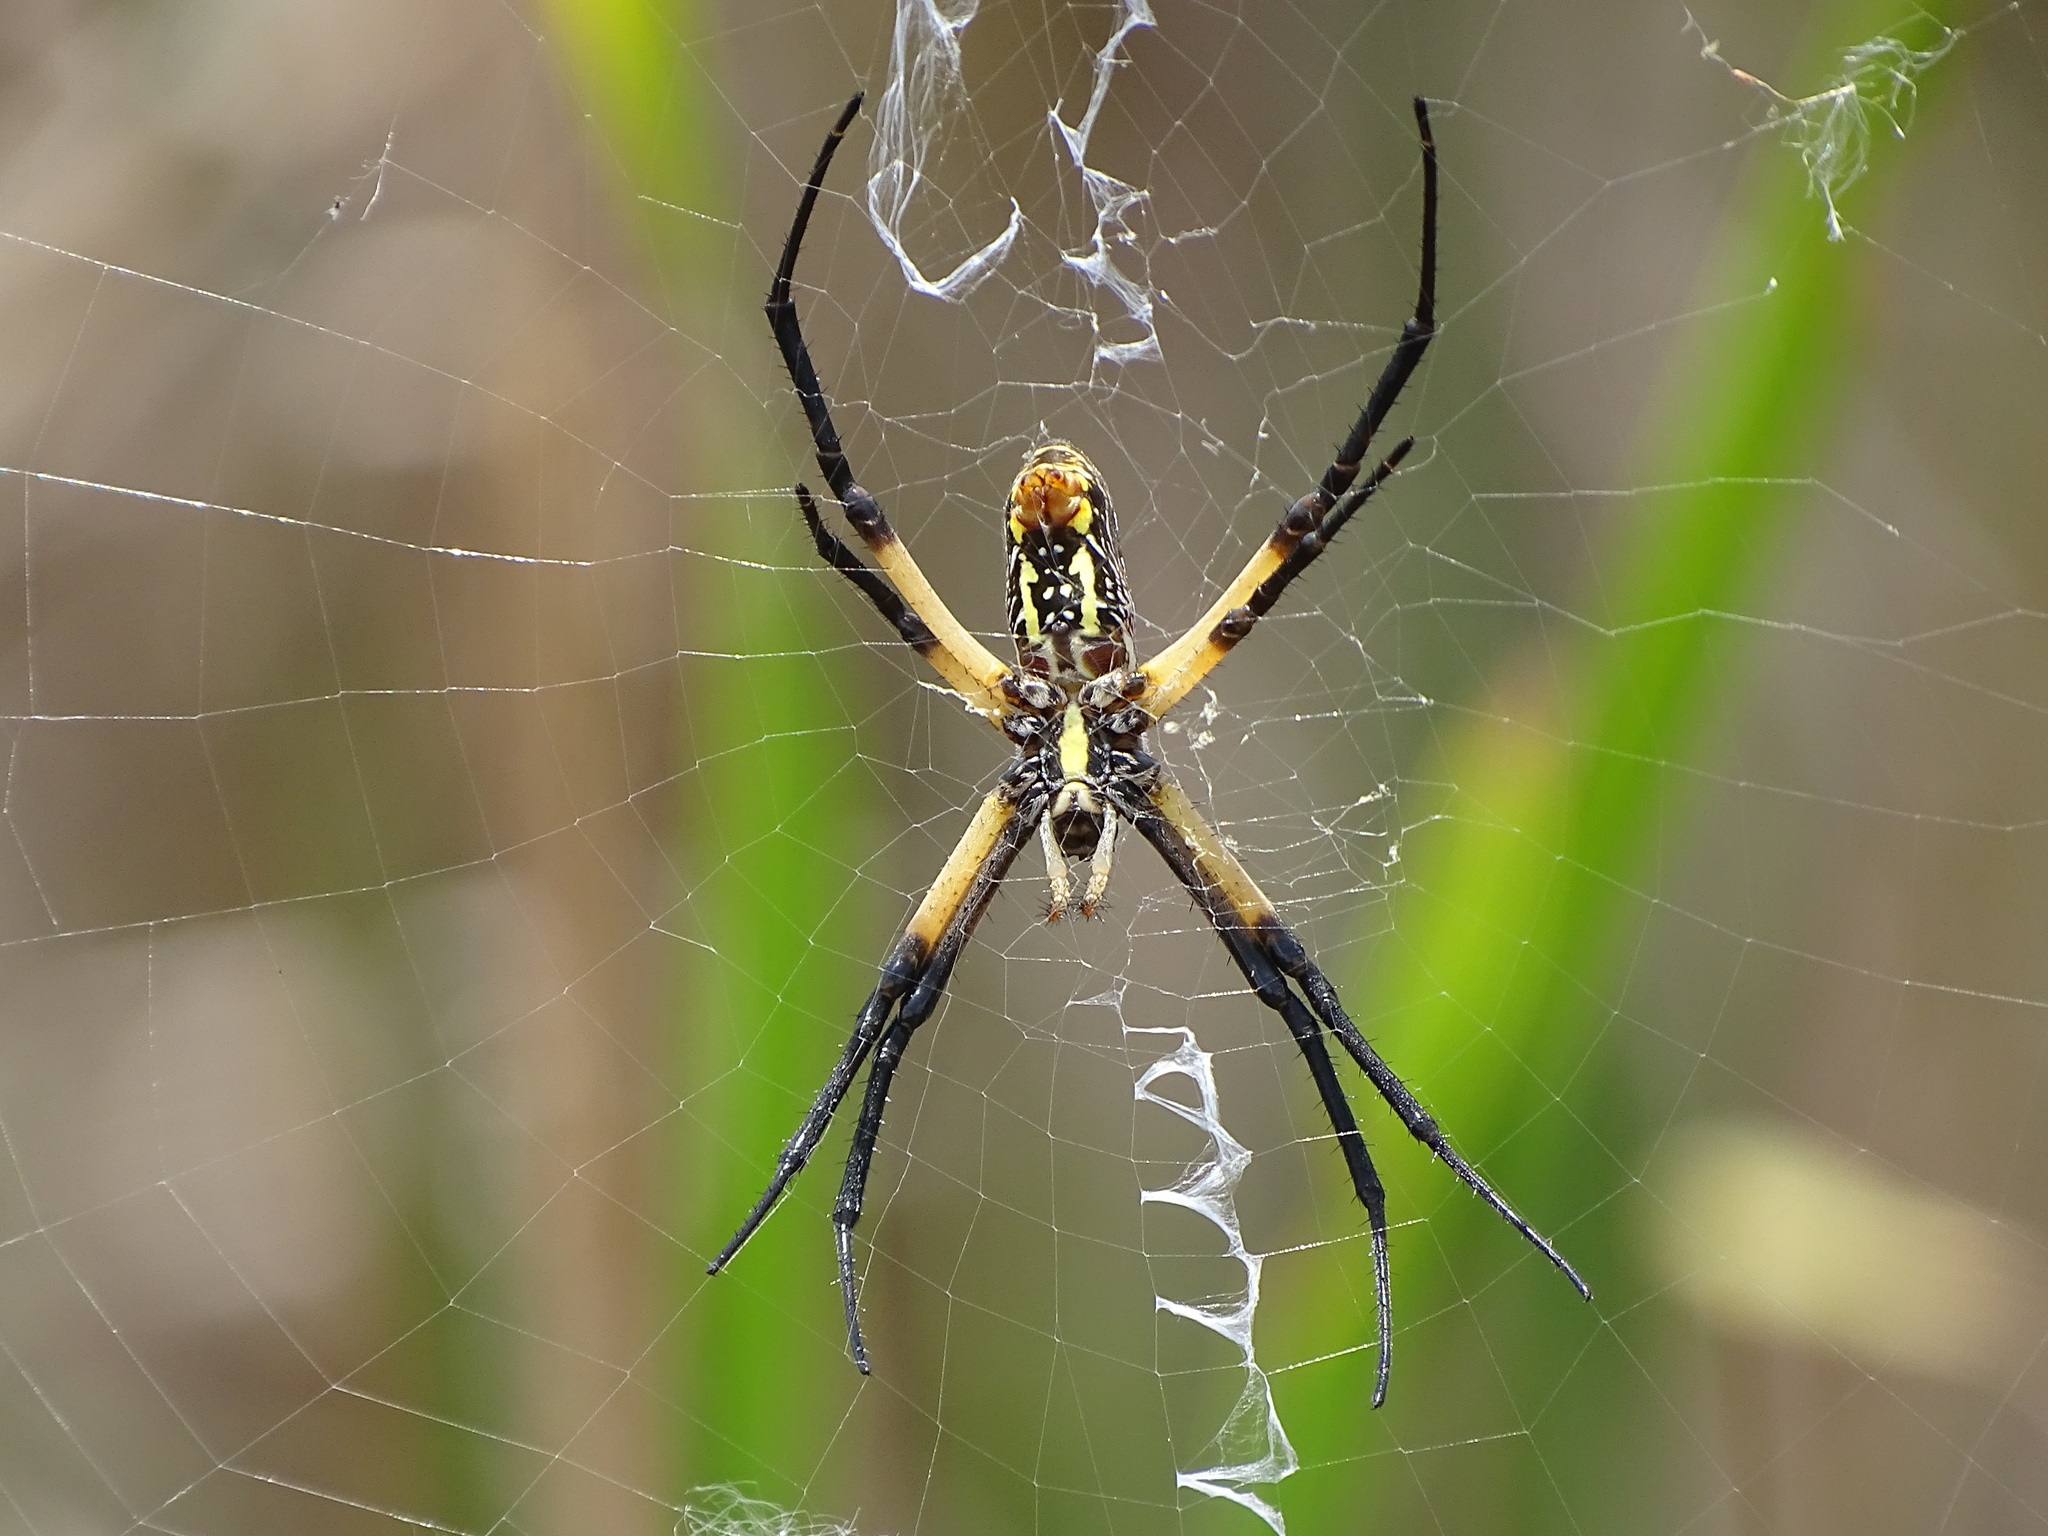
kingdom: Animalia
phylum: Arthropoda
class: Arachnida
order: Araneae
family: Araneidae
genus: Argiope
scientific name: Argiope aurantia
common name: Orb weavers
